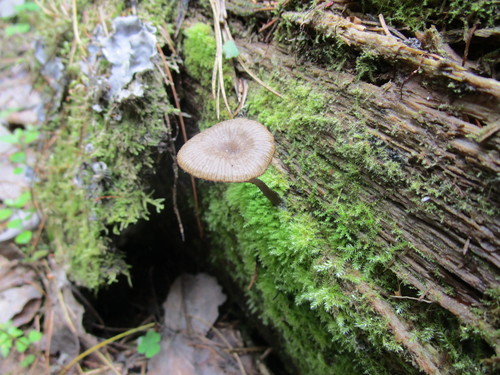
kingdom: Fungi
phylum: Basidiomycota
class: Agaricomycetes
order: Agaricales
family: Hygrophoraceae
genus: Arrhenia
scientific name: Arrhenia epichysium
